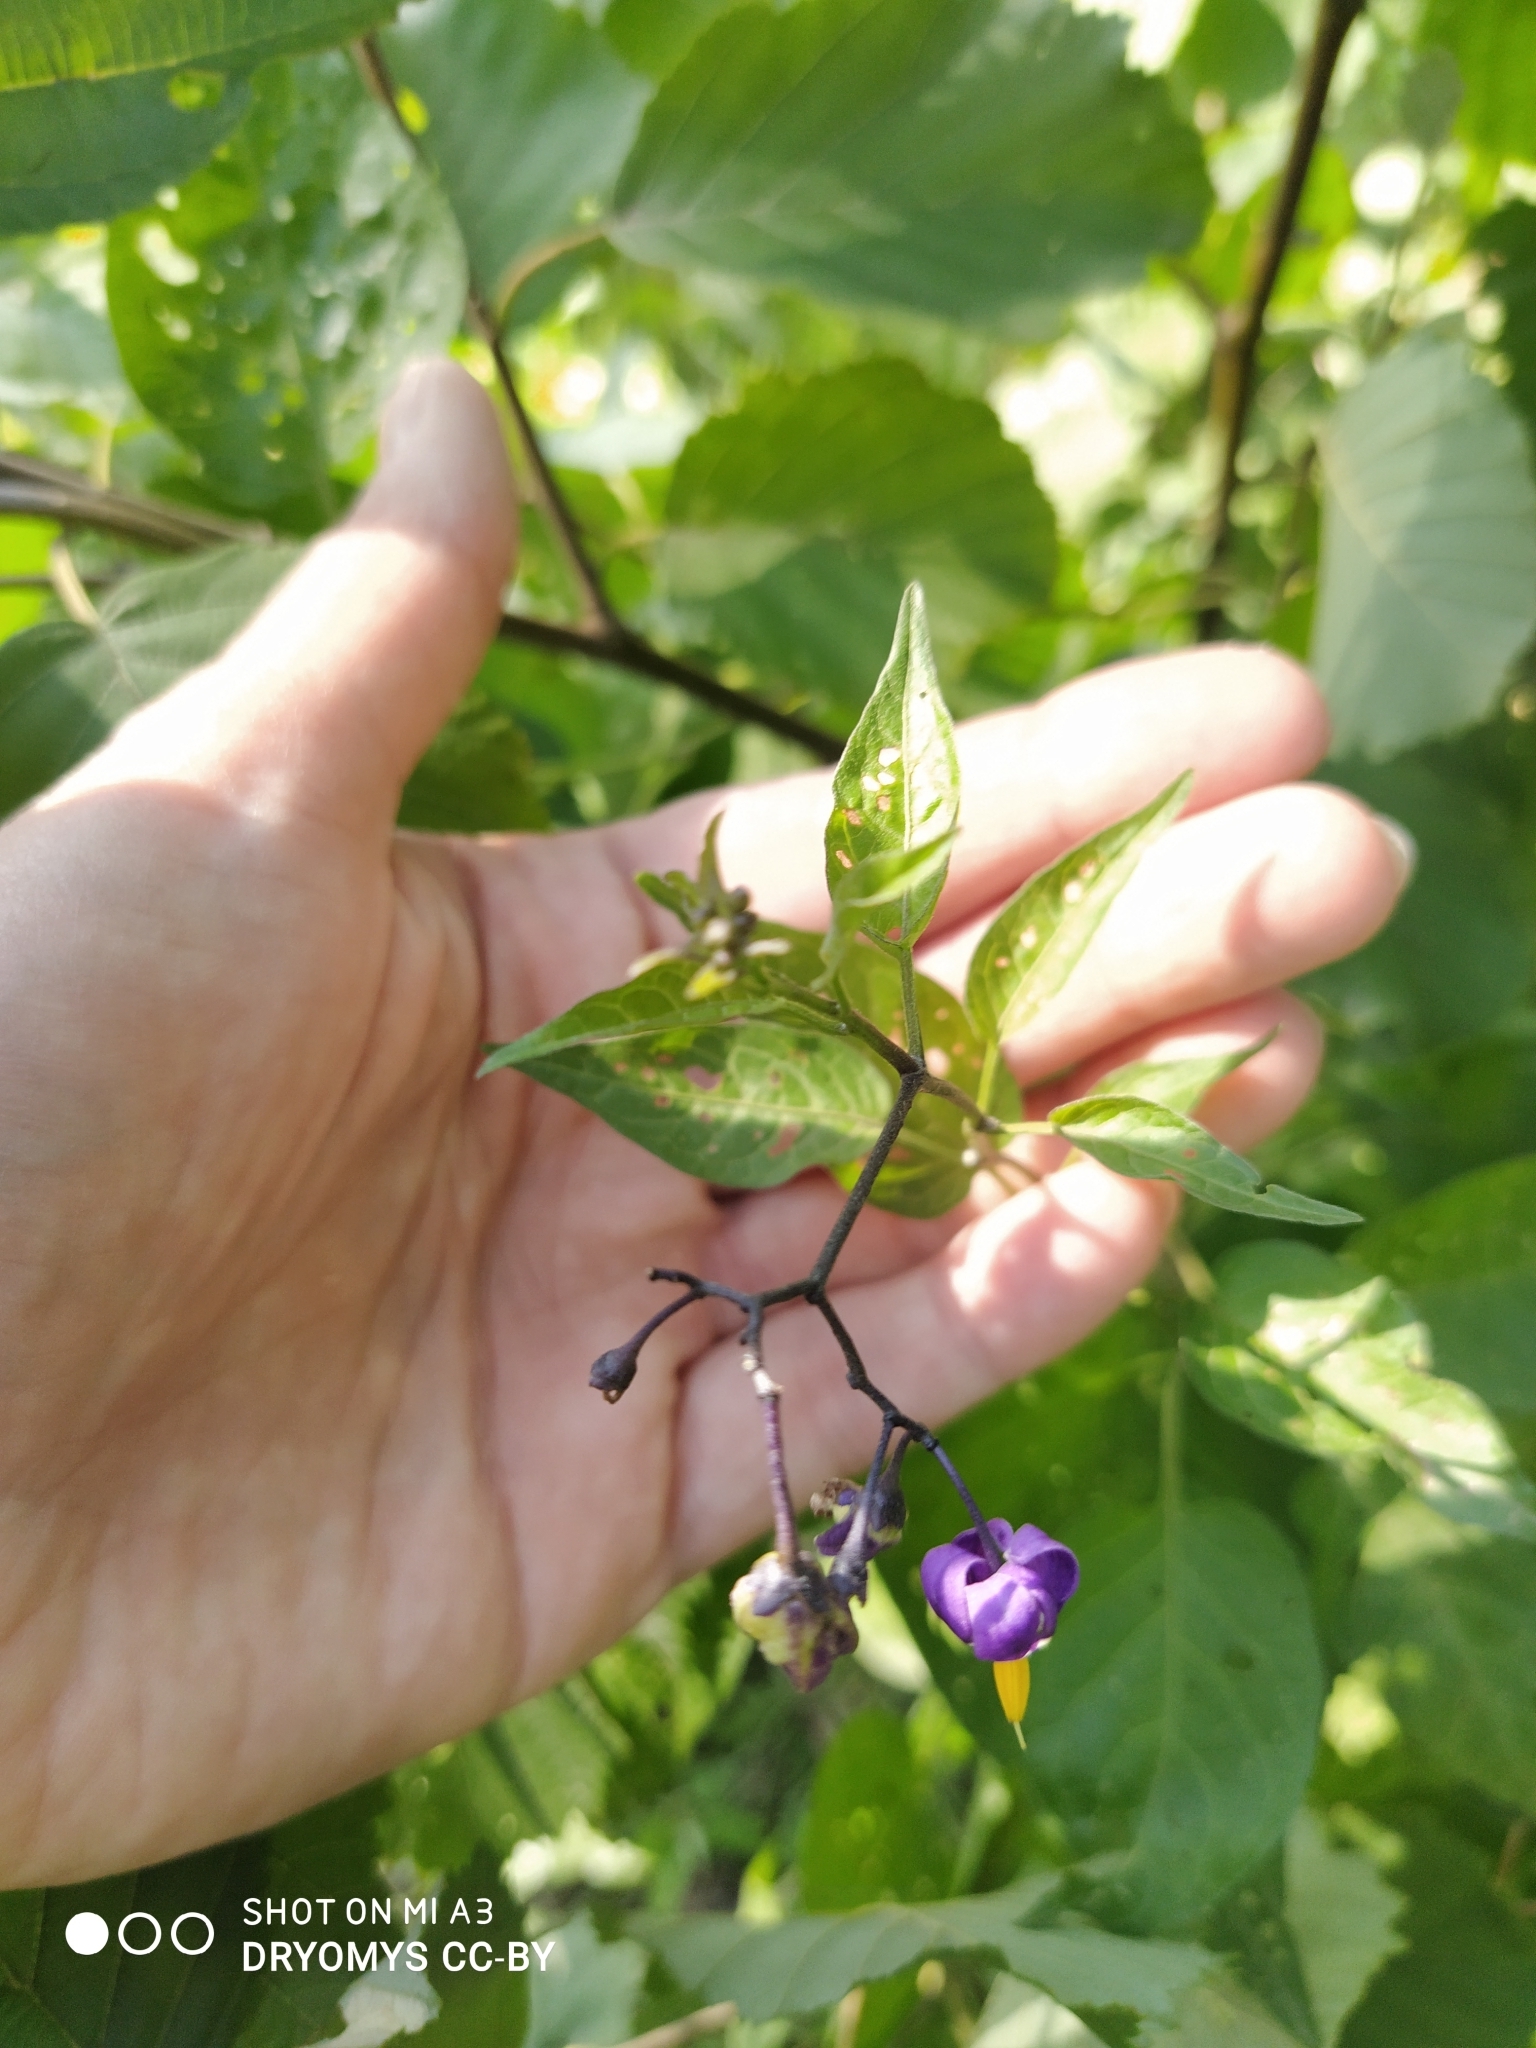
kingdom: Plantae
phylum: Tracheophyta
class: Magnoliopsida
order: Solanales
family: Solanaceae
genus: Solanum
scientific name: Solanum dulcamara
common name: Climbing nightshade
